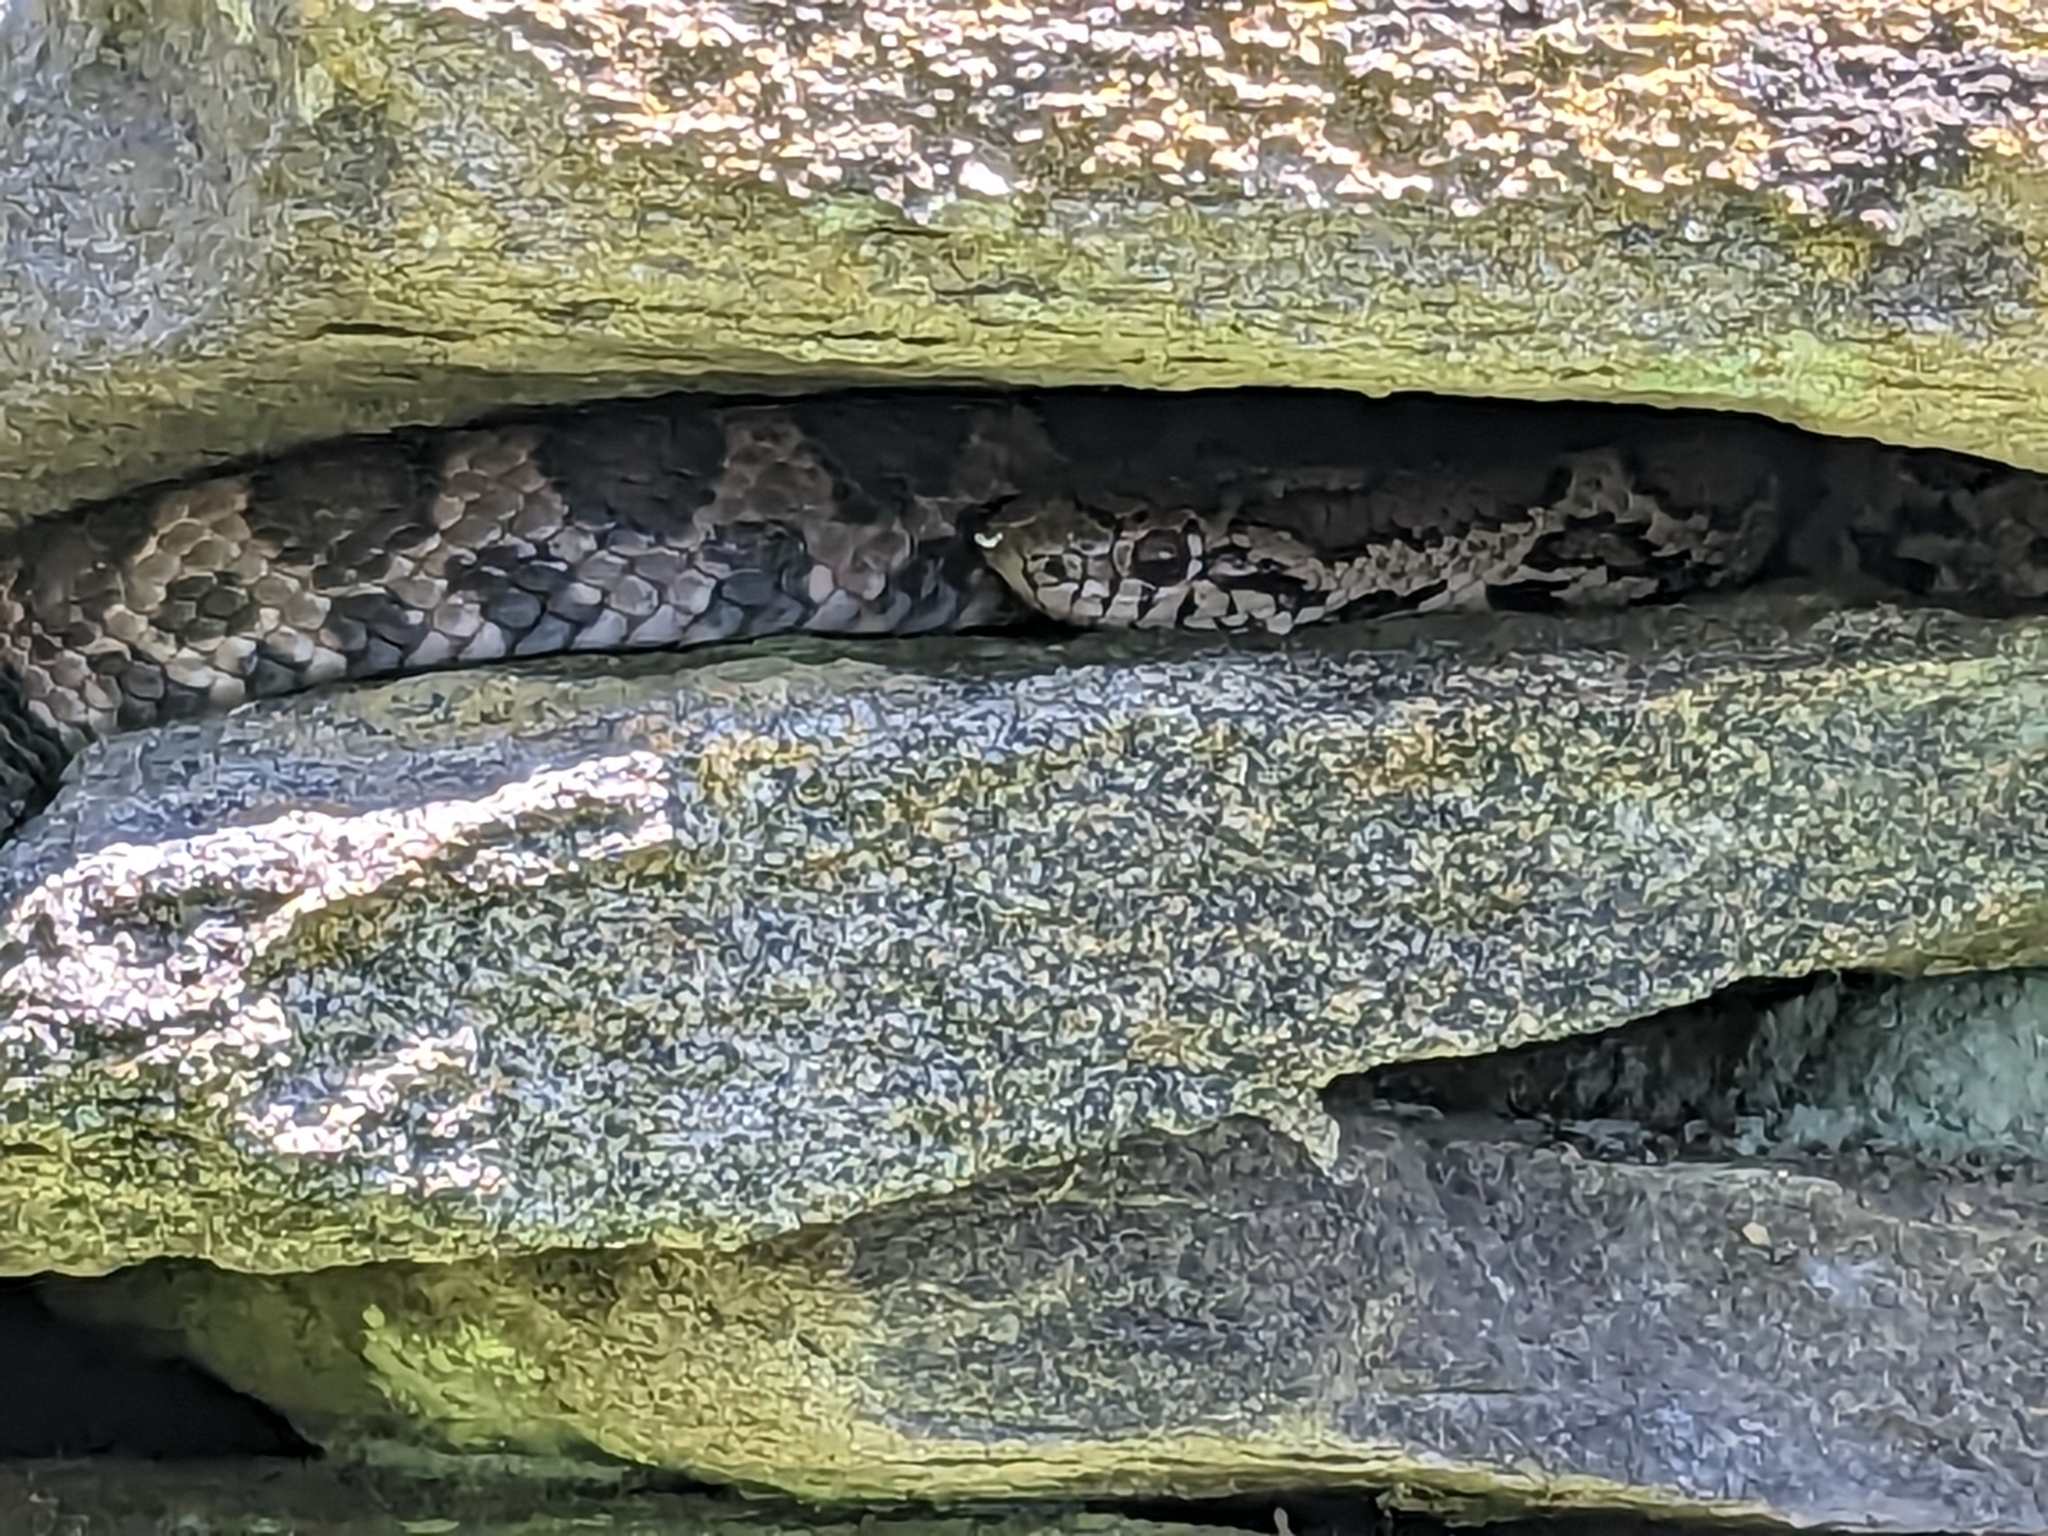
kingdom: Animalia
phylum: Chordata
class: Squamata
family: Colubridae
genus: Lampropeltis
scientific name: Lampropeltis triangulum
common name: Eastern milksnake
